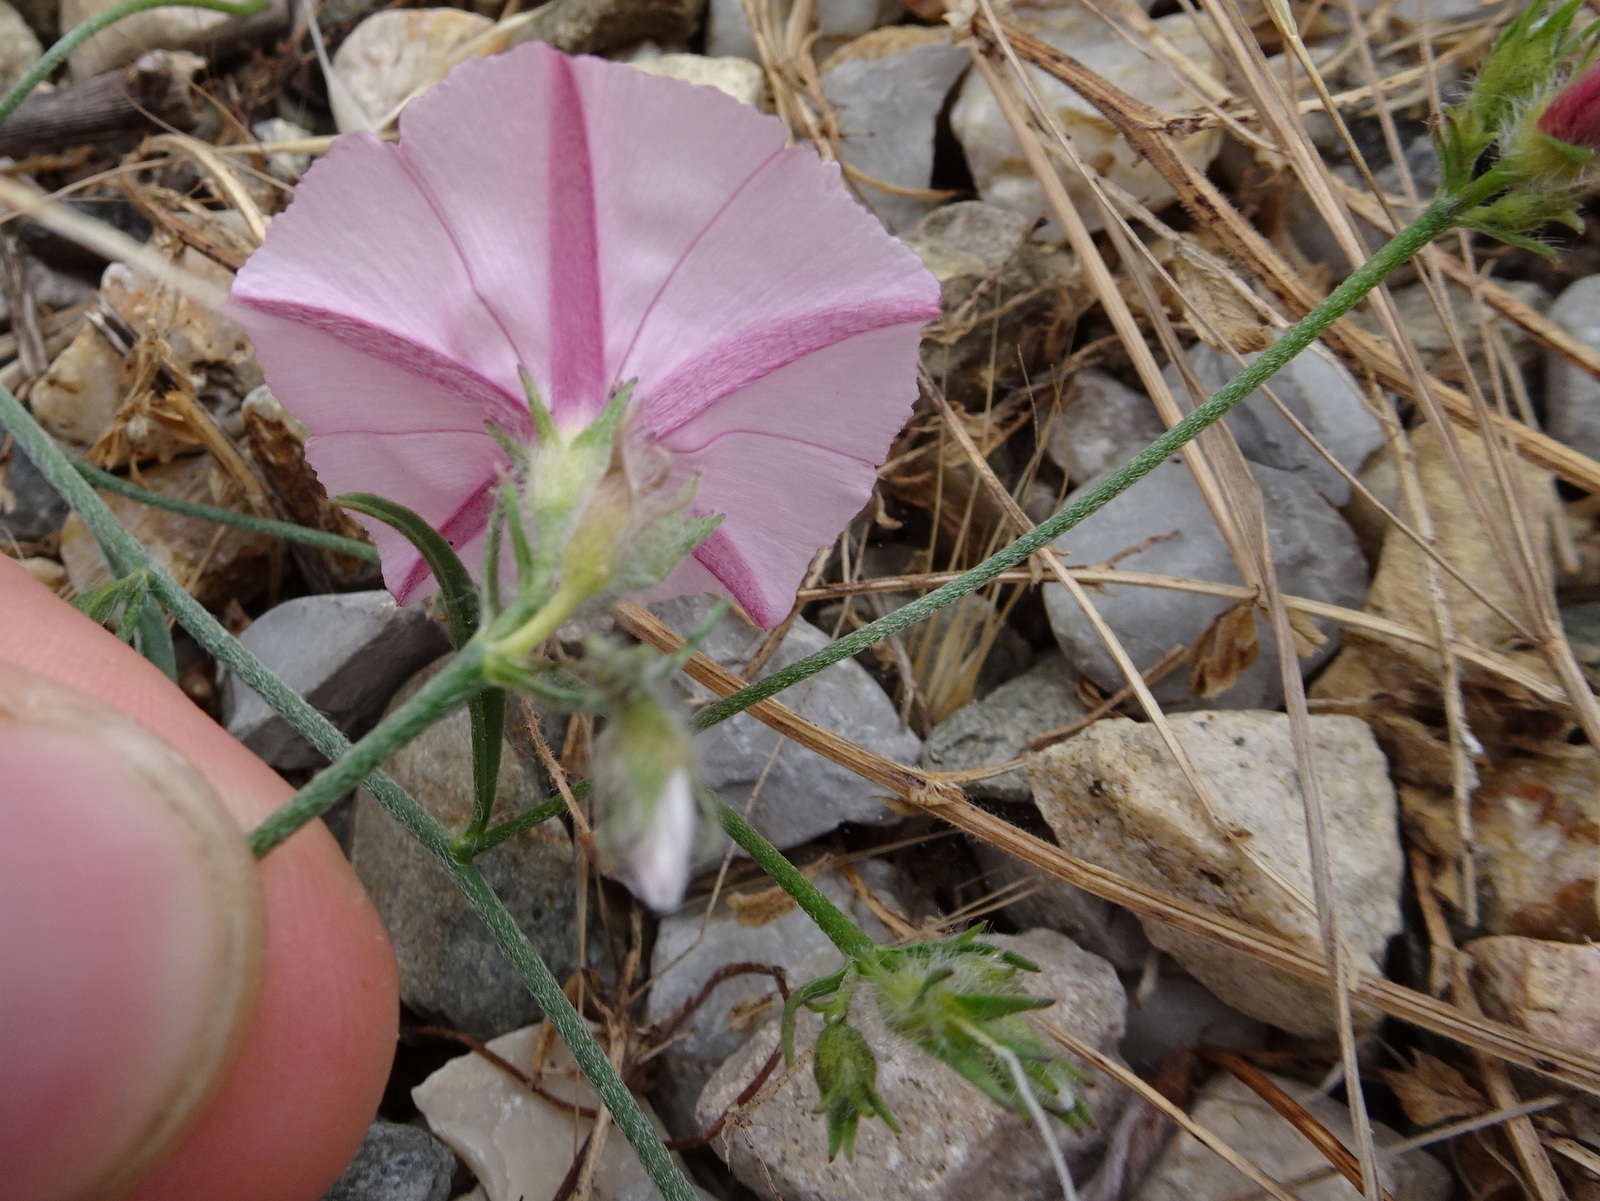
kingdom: Plantae
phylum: Tracheophyta
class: Magnoliopsida
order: Solanales
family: Convolvulaceae
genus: Convolvulus
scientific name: Convolvulus cantabrica
